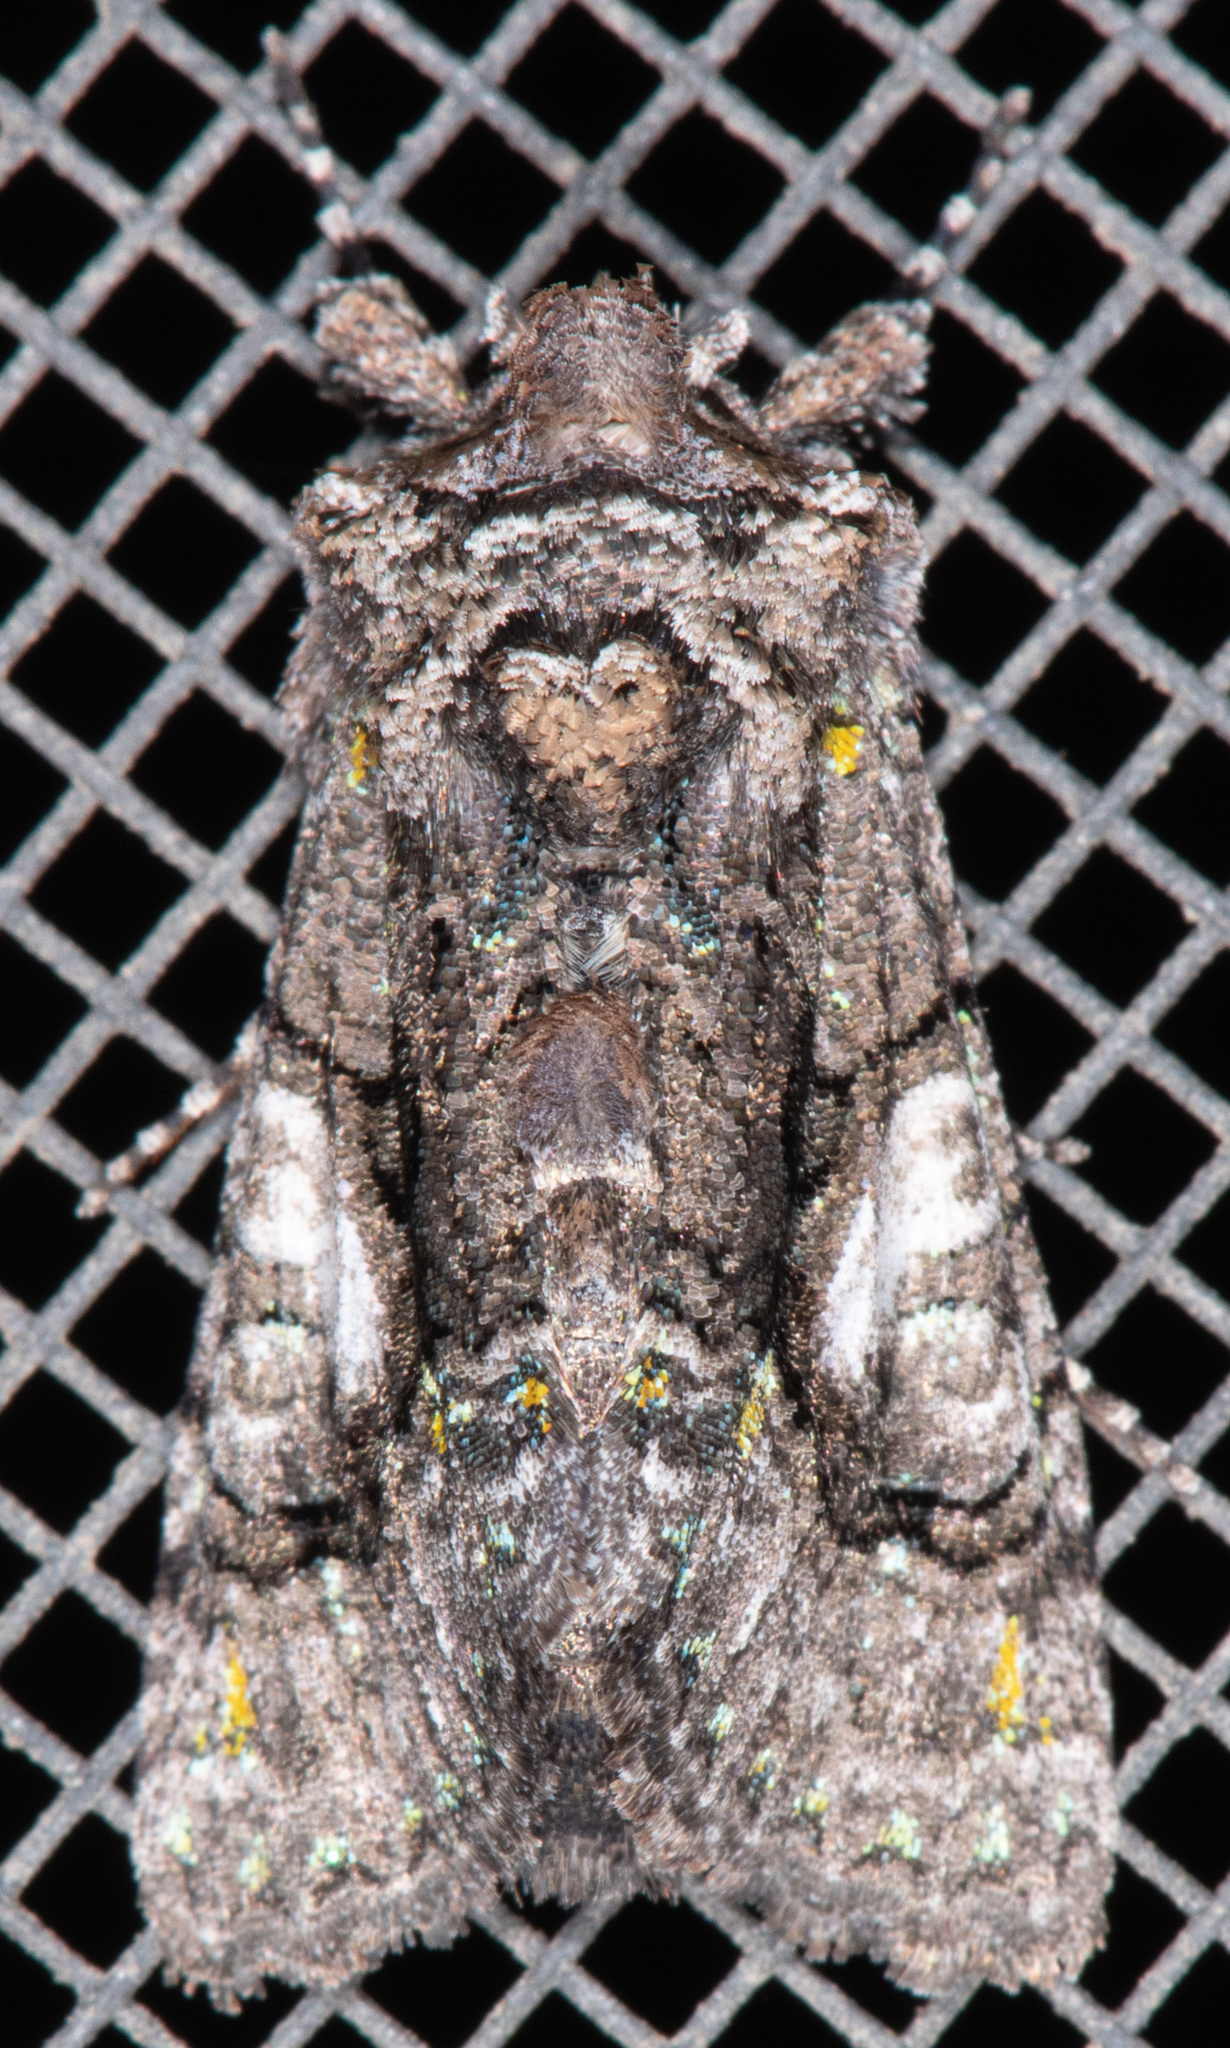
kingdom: Animalia
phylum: Arthropoda
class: Insecta
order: Lepidoptera
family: Noctuidae
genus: Behrensia
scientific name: Behrensia conchiformis
